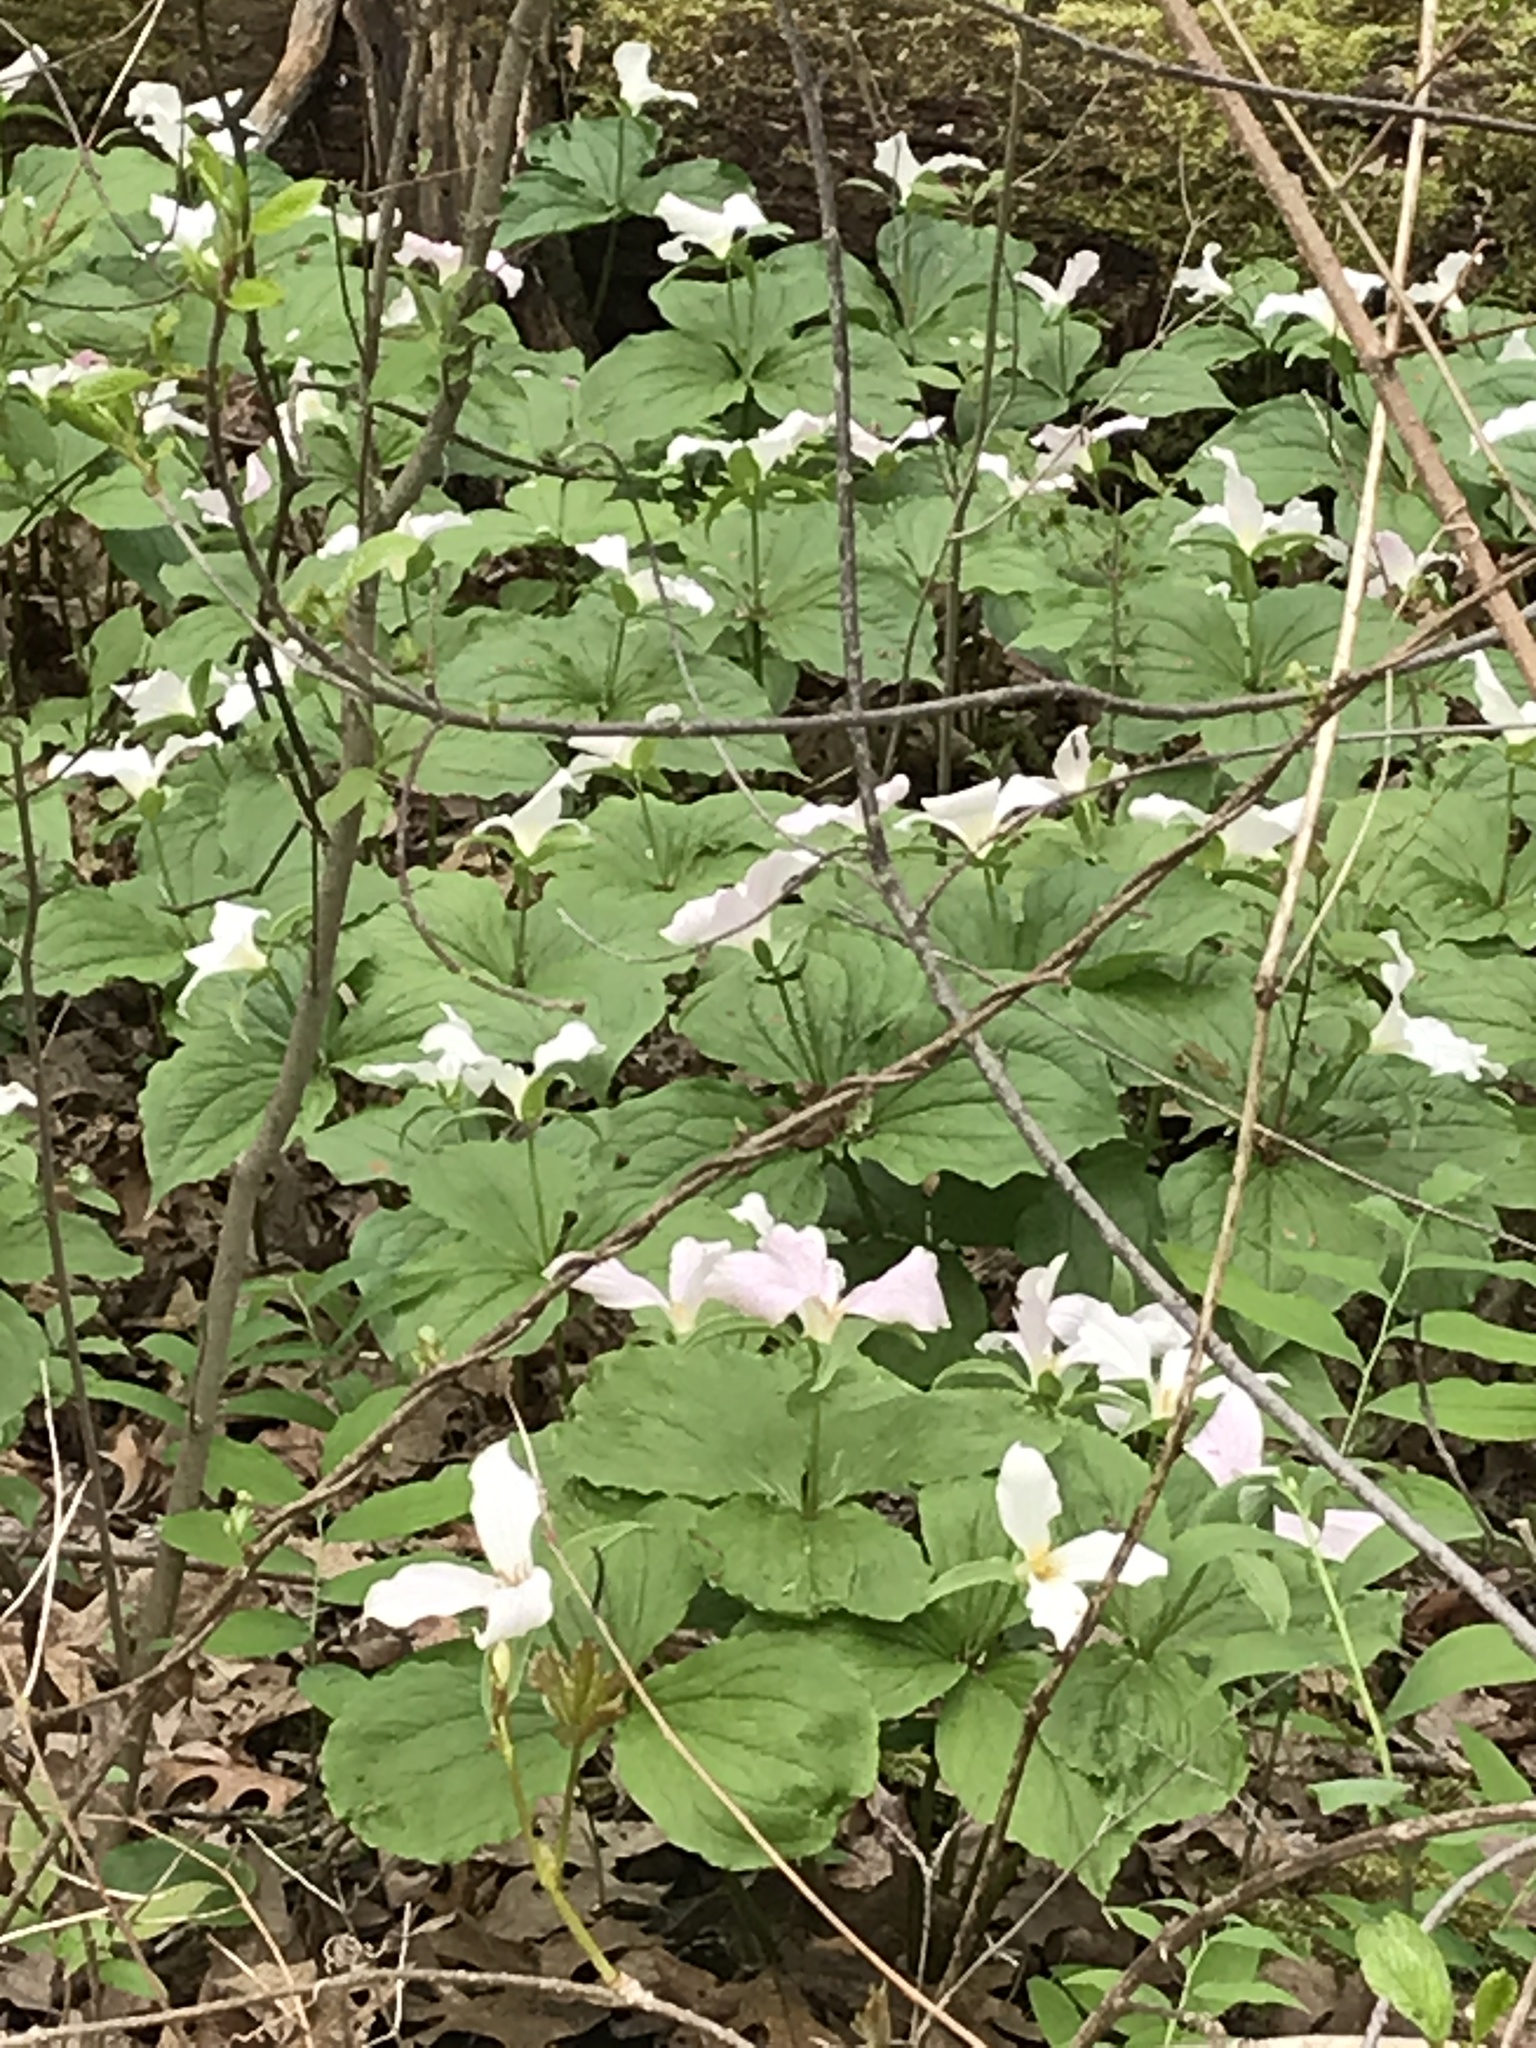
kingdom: Plantae
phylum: Tracheophyta
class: Liliopsida
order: Liliales
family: Melanthiaceae
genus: Trillium
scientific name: Trillium grandiflorum
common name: Great white trillium
